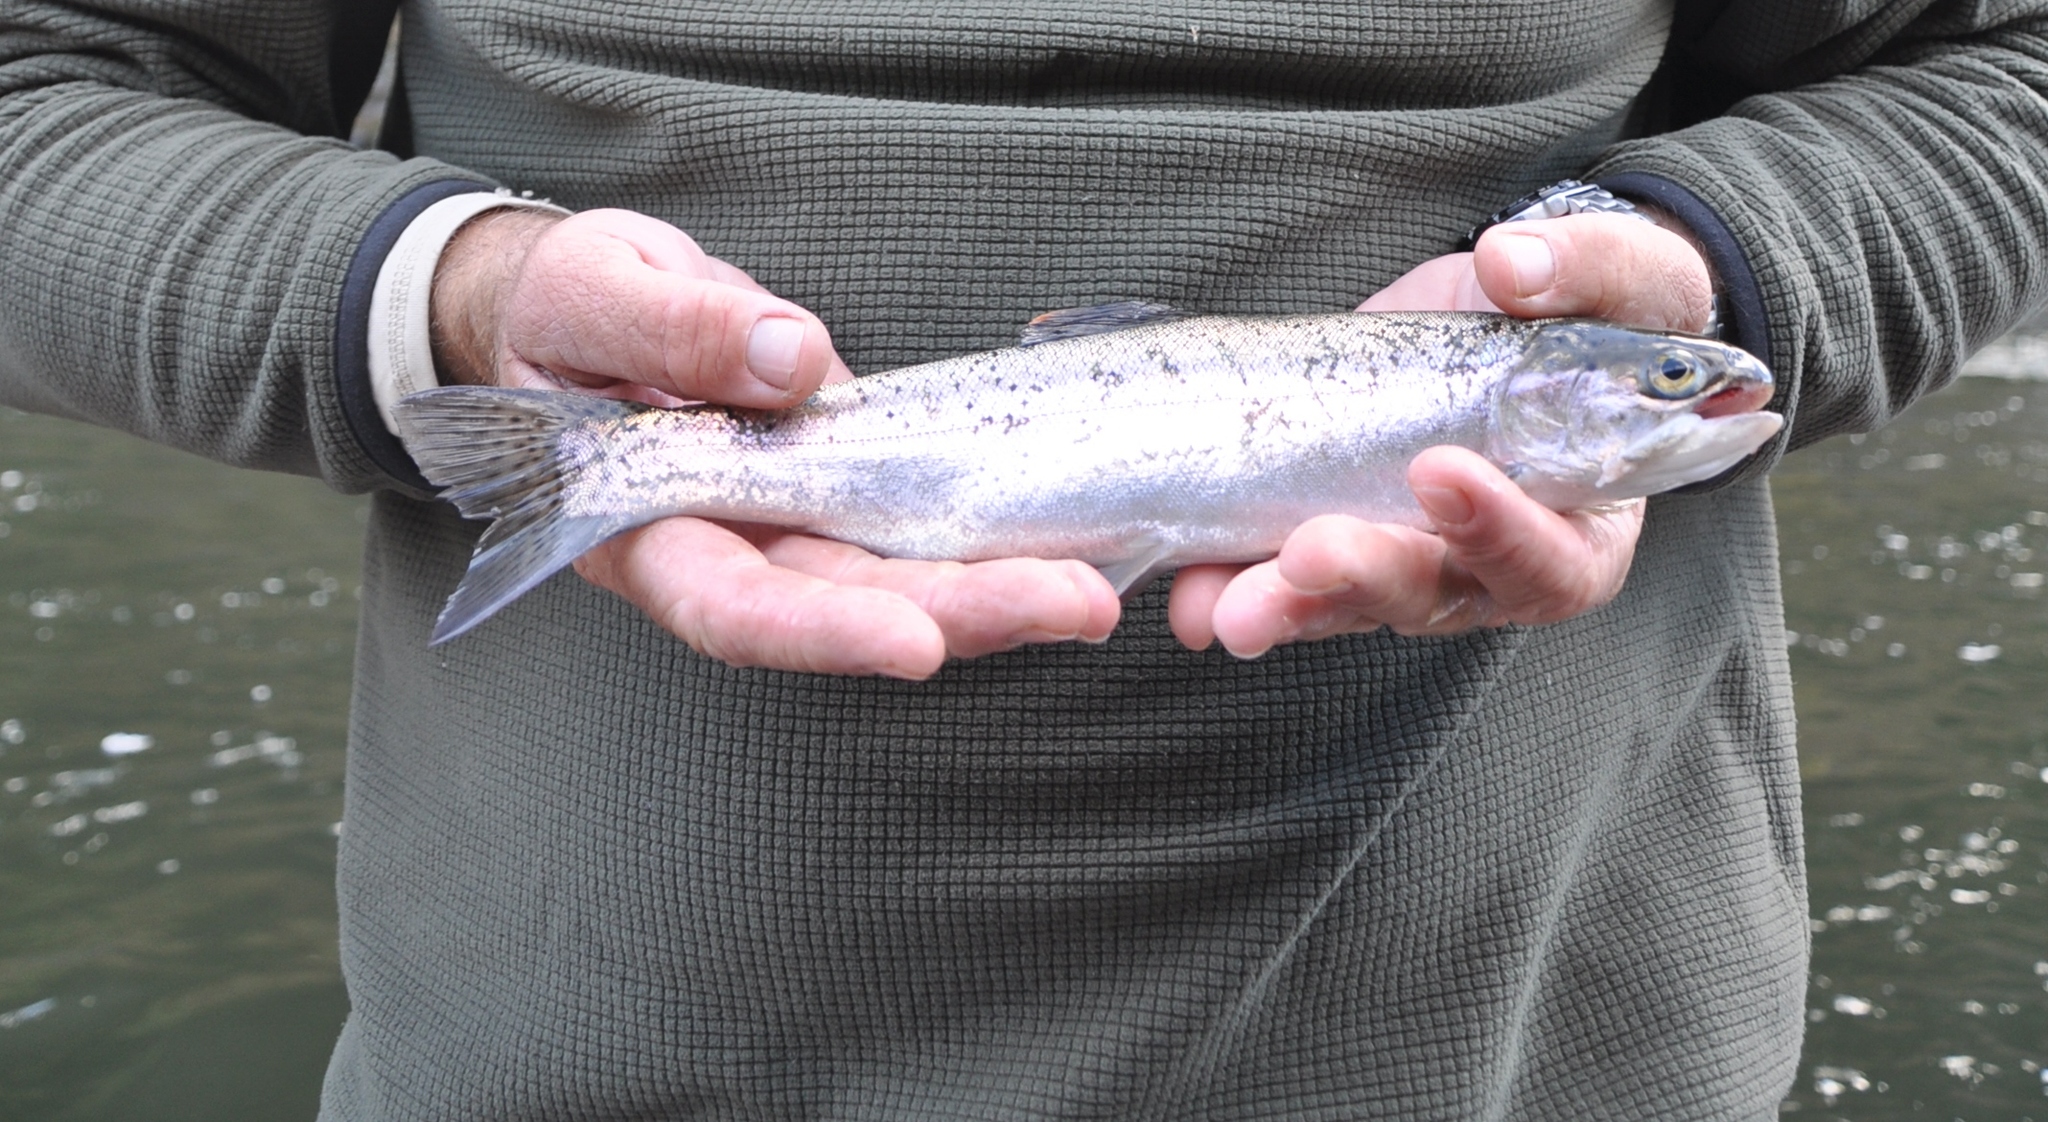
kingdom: Animalia
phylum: Chordata
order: Salmoniformes
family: Salmonidae
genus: Oncorhynchus
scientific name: Oncorhynchus mykiss
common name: Rainbow trout
